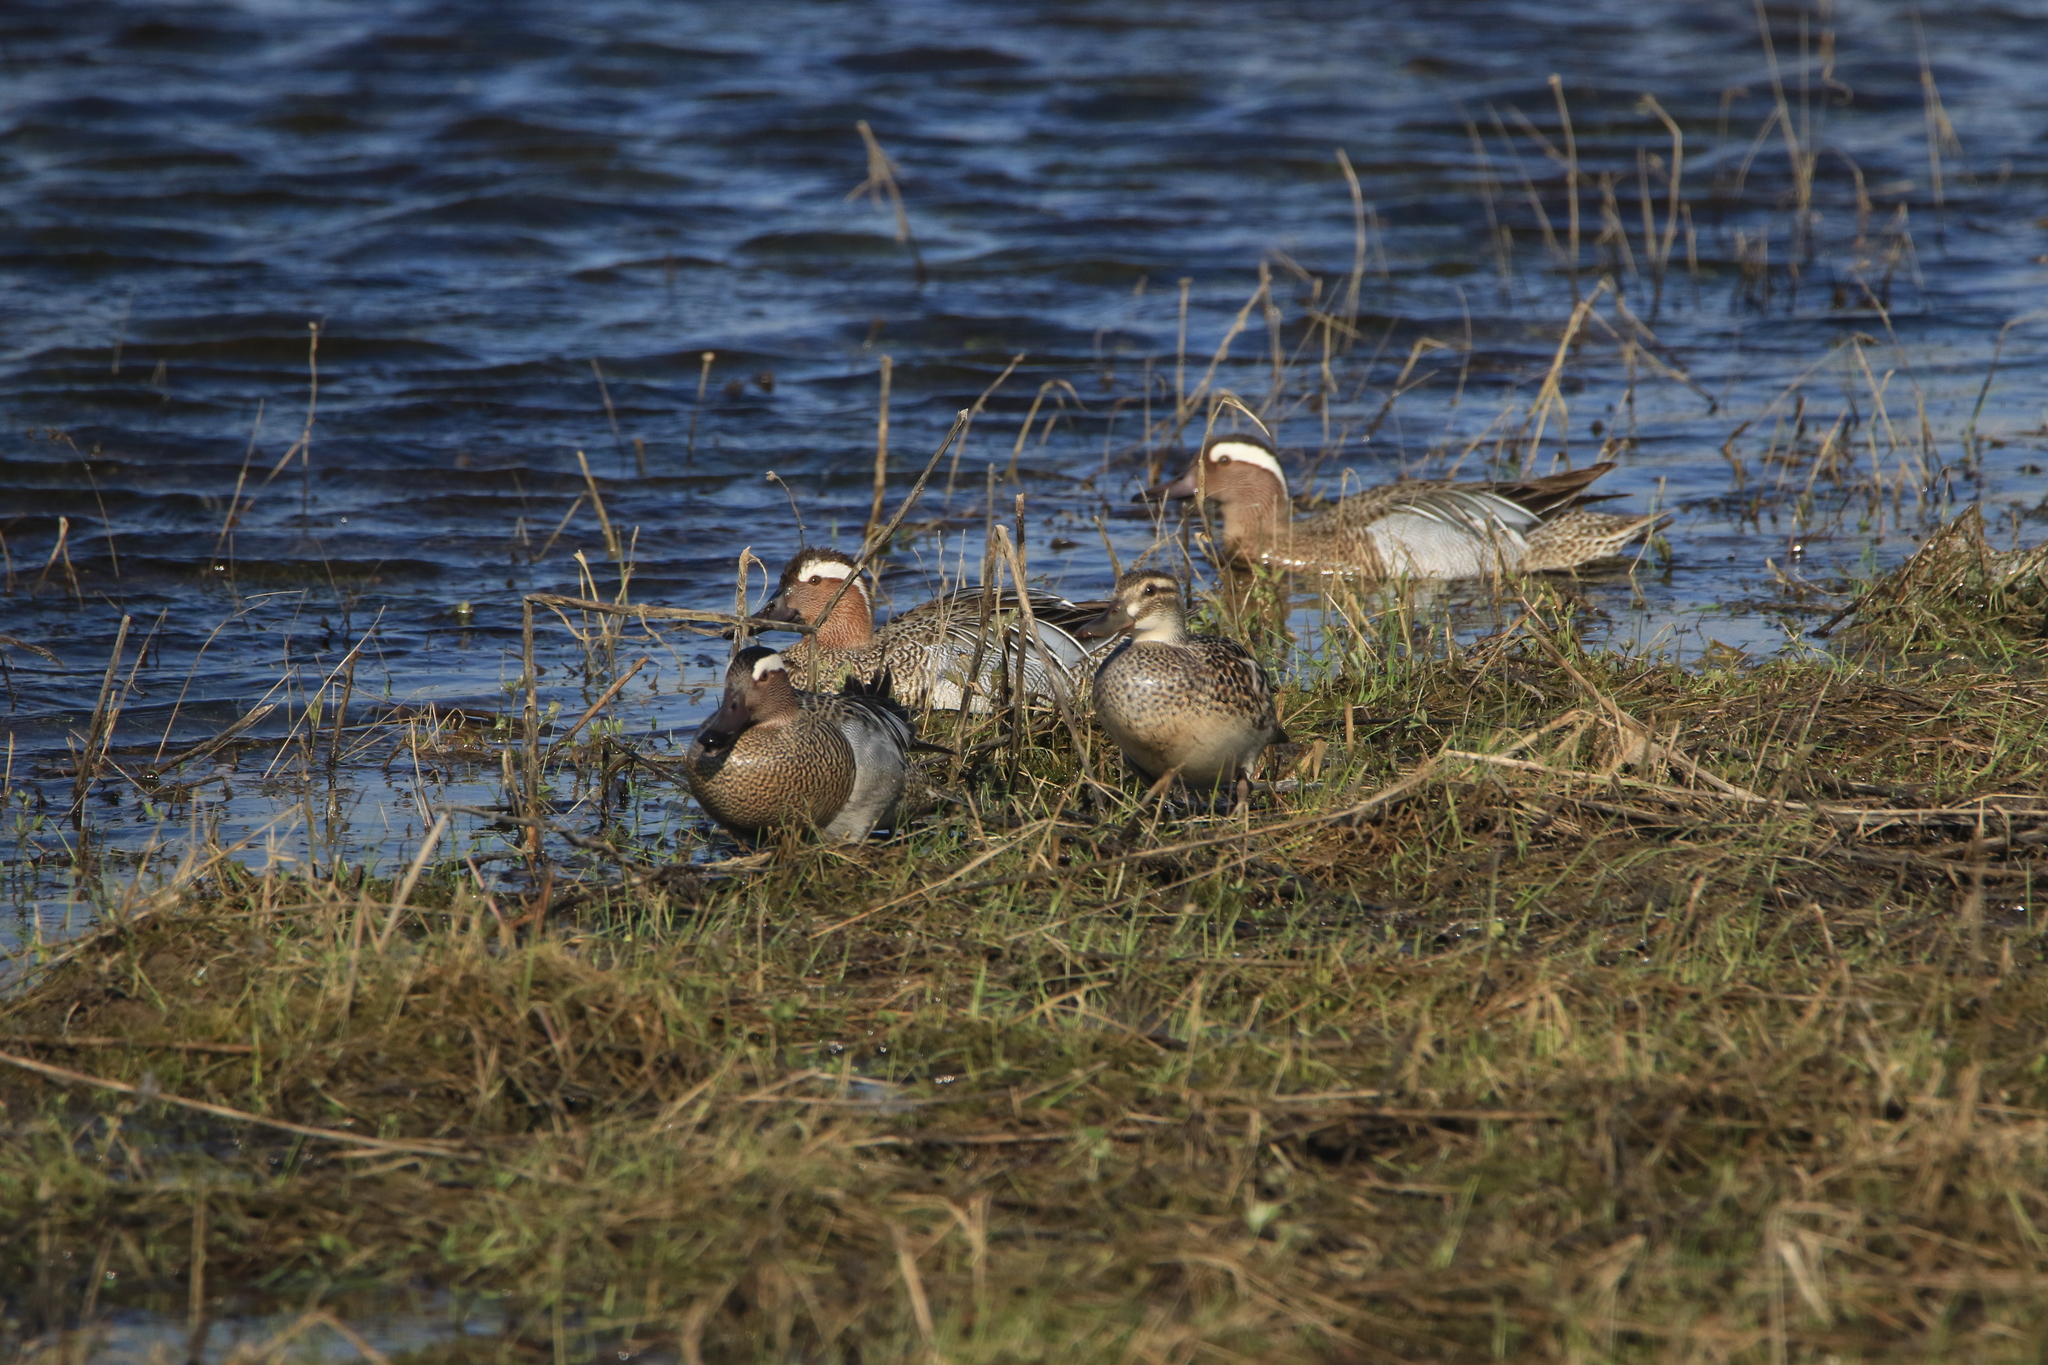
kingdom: Animalia
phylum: Chordata
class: Aves
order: Anseriformes
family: Anatidae
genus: Spatula
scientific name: Spatula querquedula
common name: Garganey
